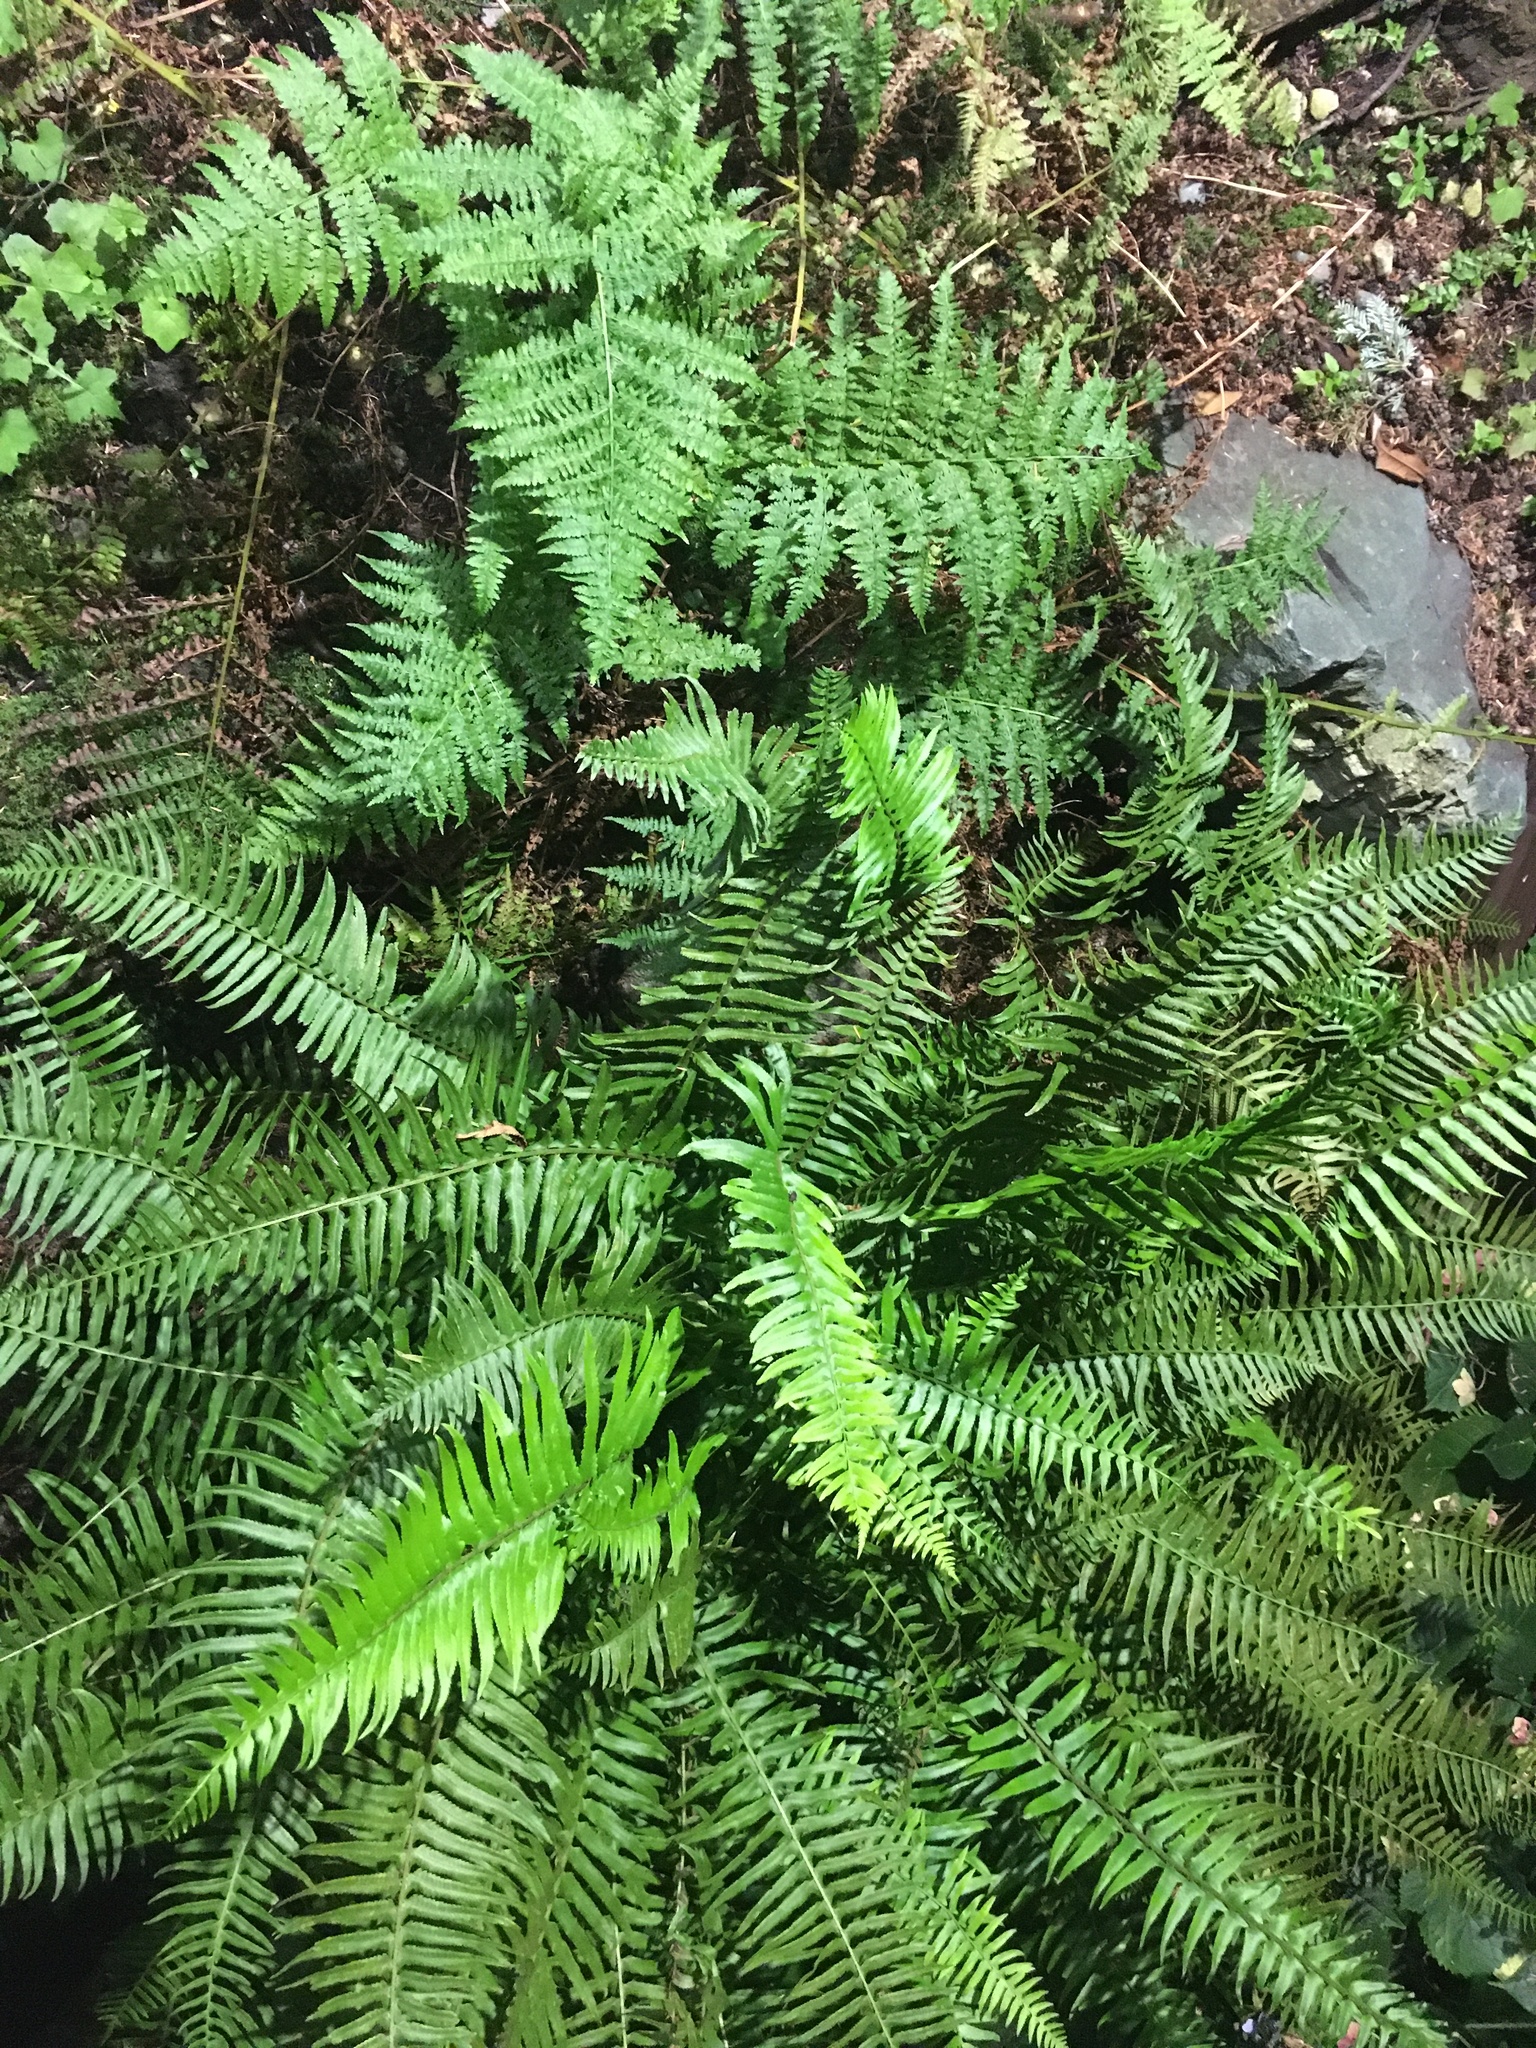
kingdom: Plantae
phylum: Tracheophyta
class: Polypodiopsida
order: Polypodiales
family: Dryopteridaceae
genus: Polystichum
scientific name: Polystichum munitum
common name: Western sword-fern
